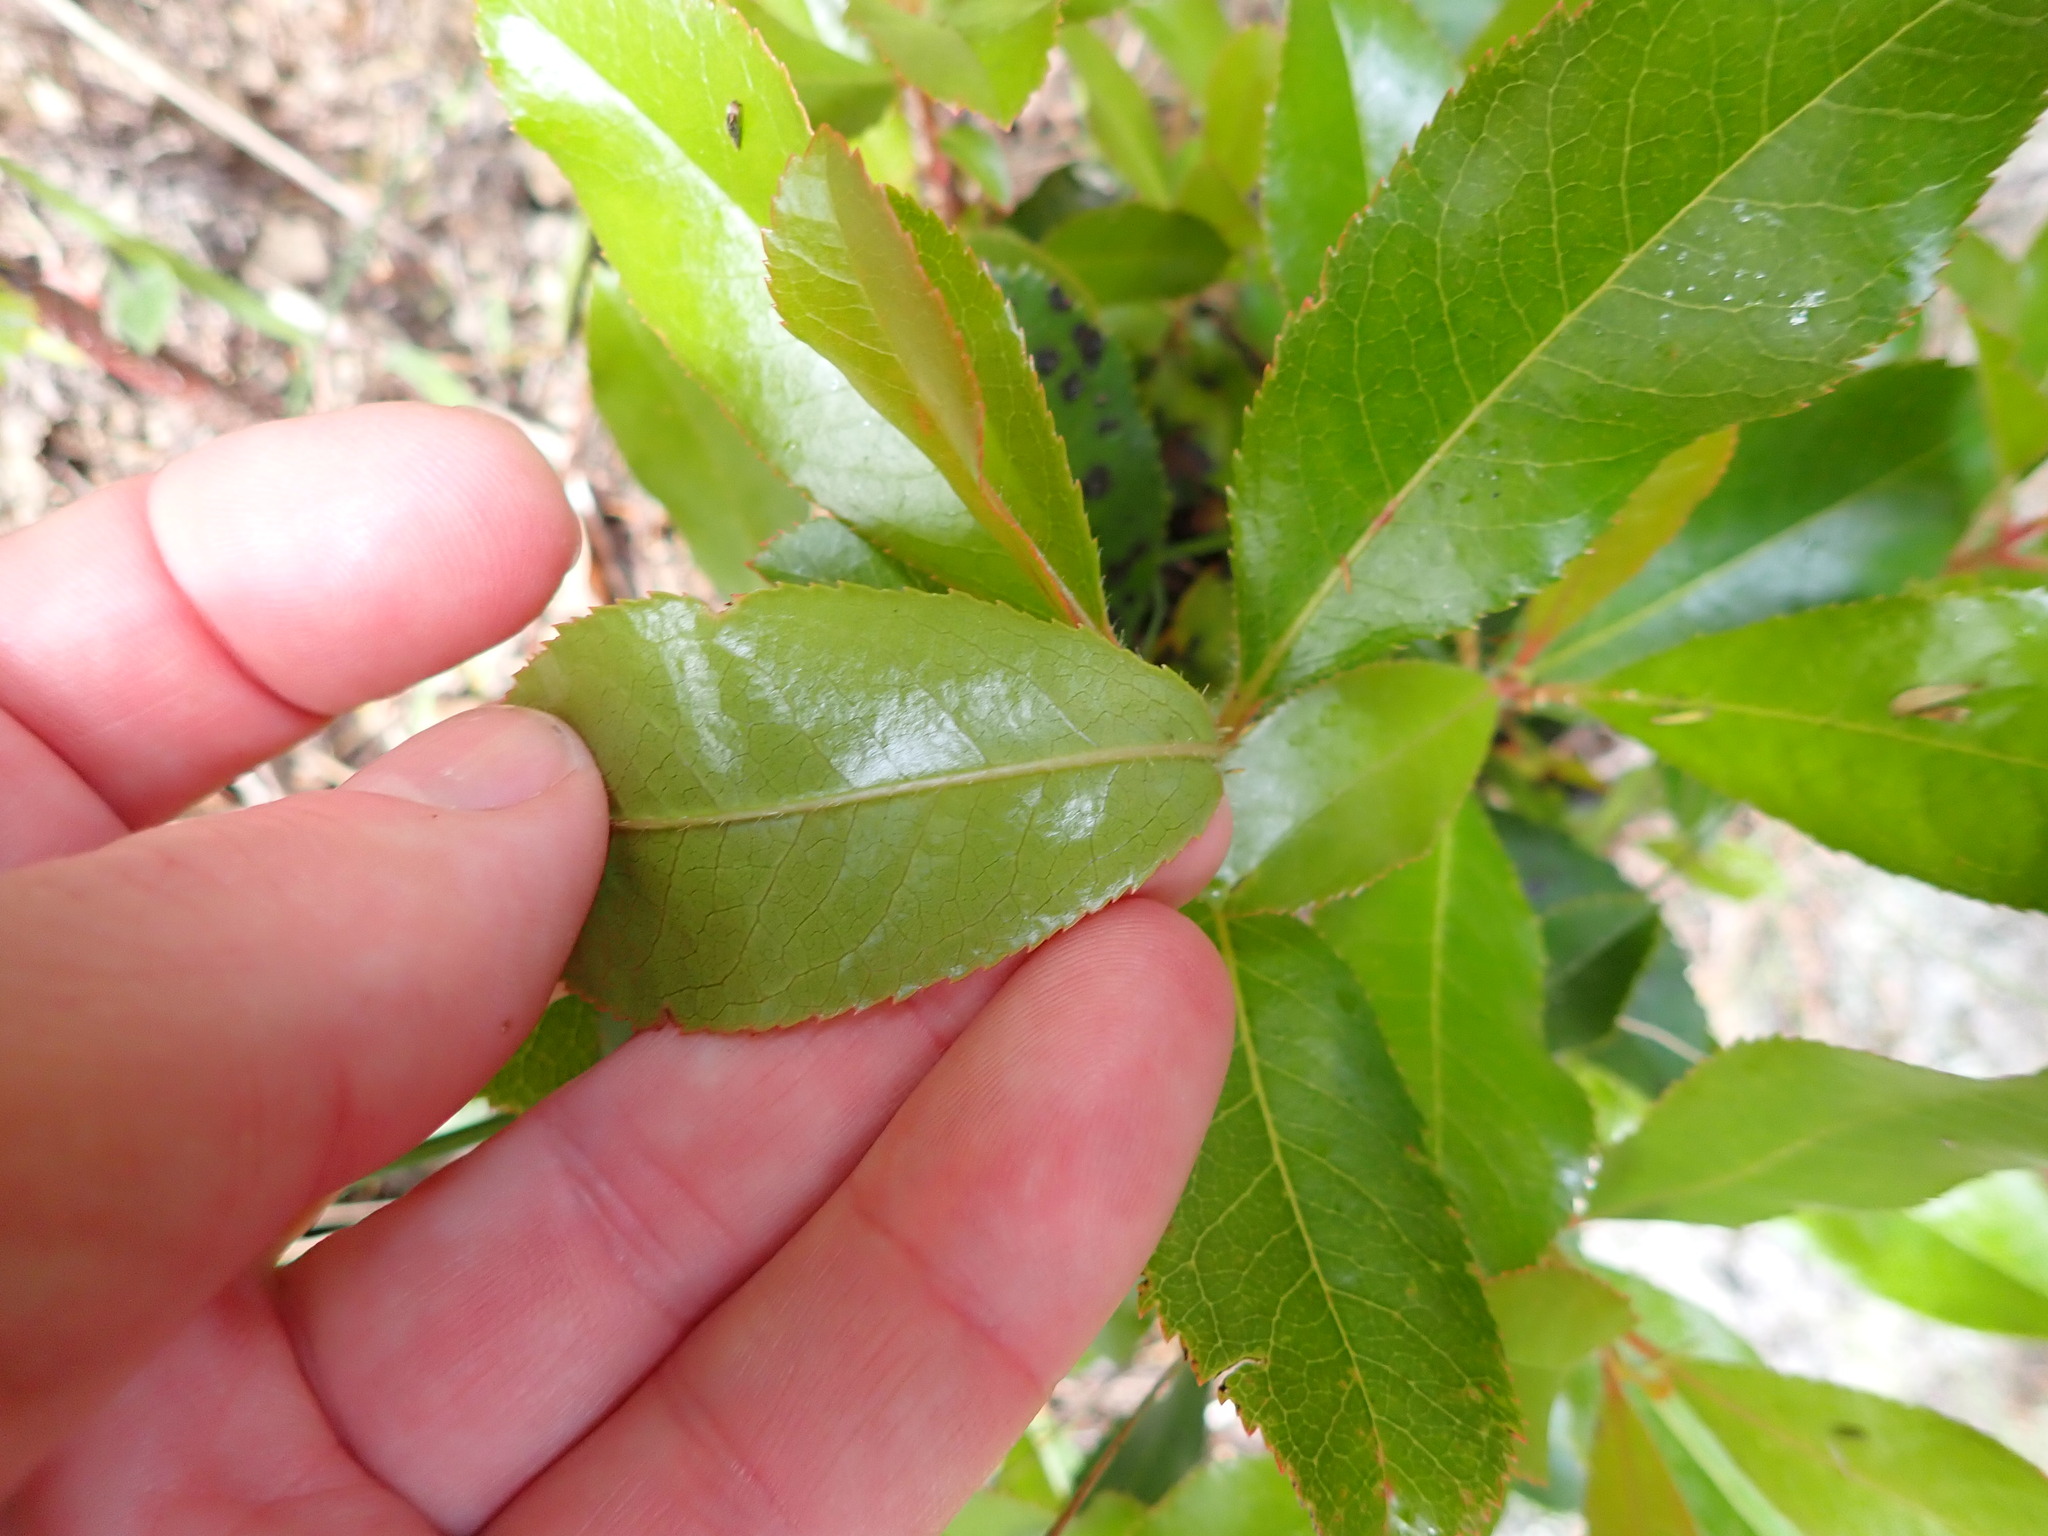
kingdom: Plantae
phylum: Tracheophyta
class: Magnoliopsida
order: Ericales
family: Ericaceae
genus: Arbutus
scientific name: Arbutus unedo
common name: Strawberry-tree
